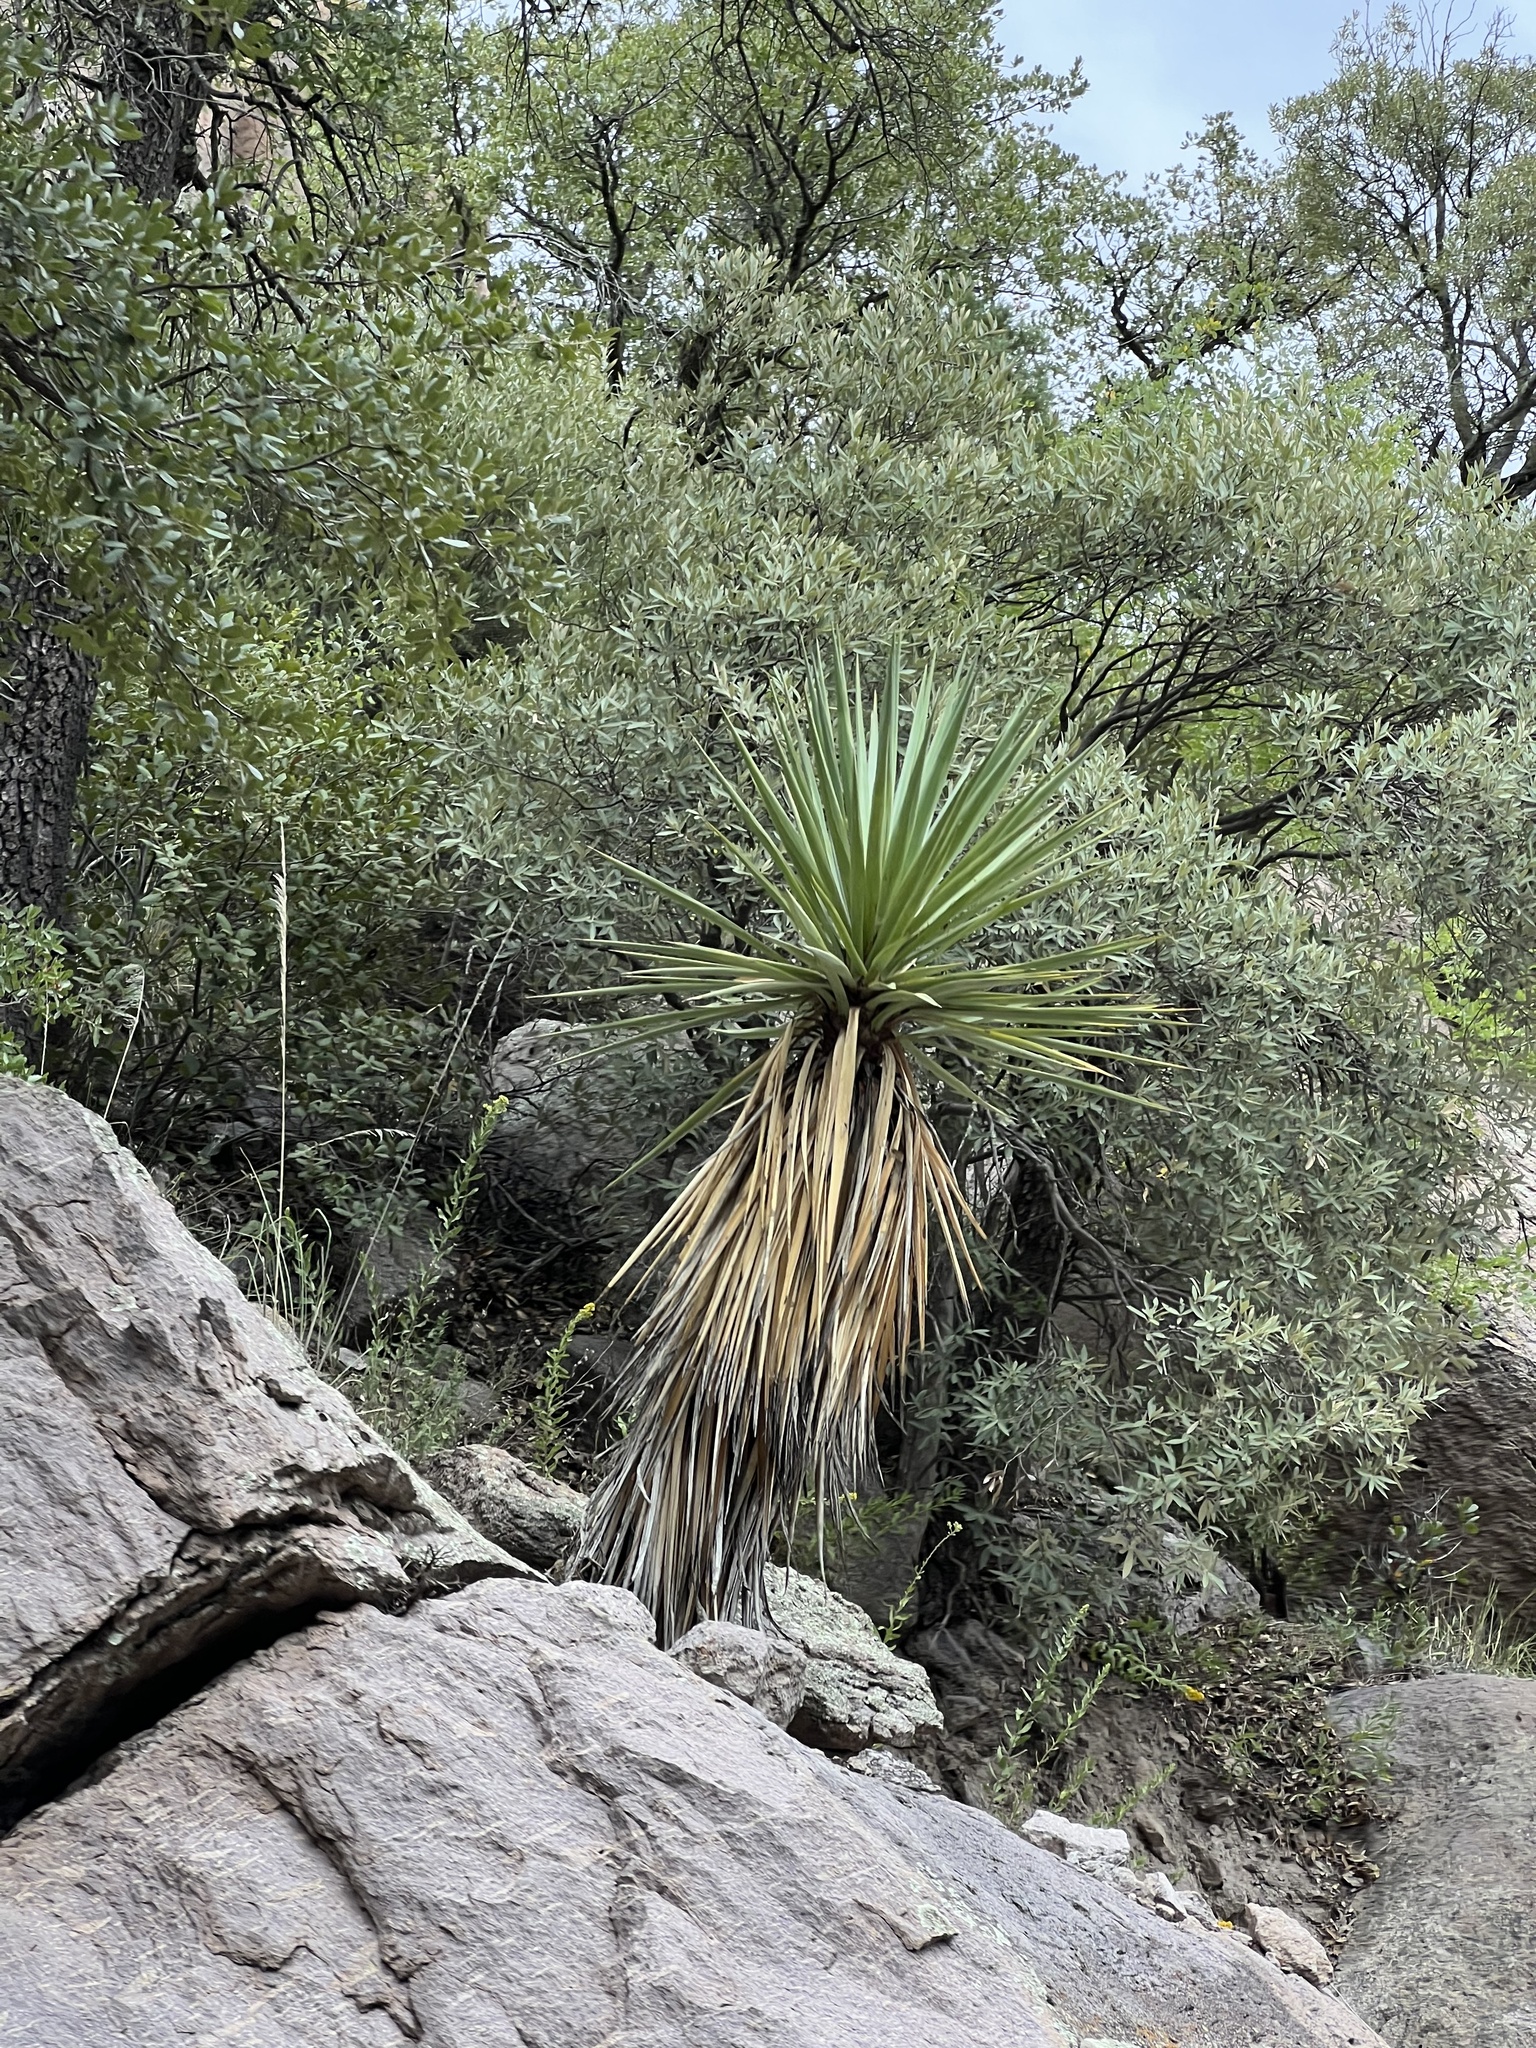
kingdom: Plantae
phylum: Tracheophyta
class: Liliopsida
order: Asparagales
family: Asparagaceae
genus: Yucca
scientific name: Yucca schottii
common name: Hoary yucca
